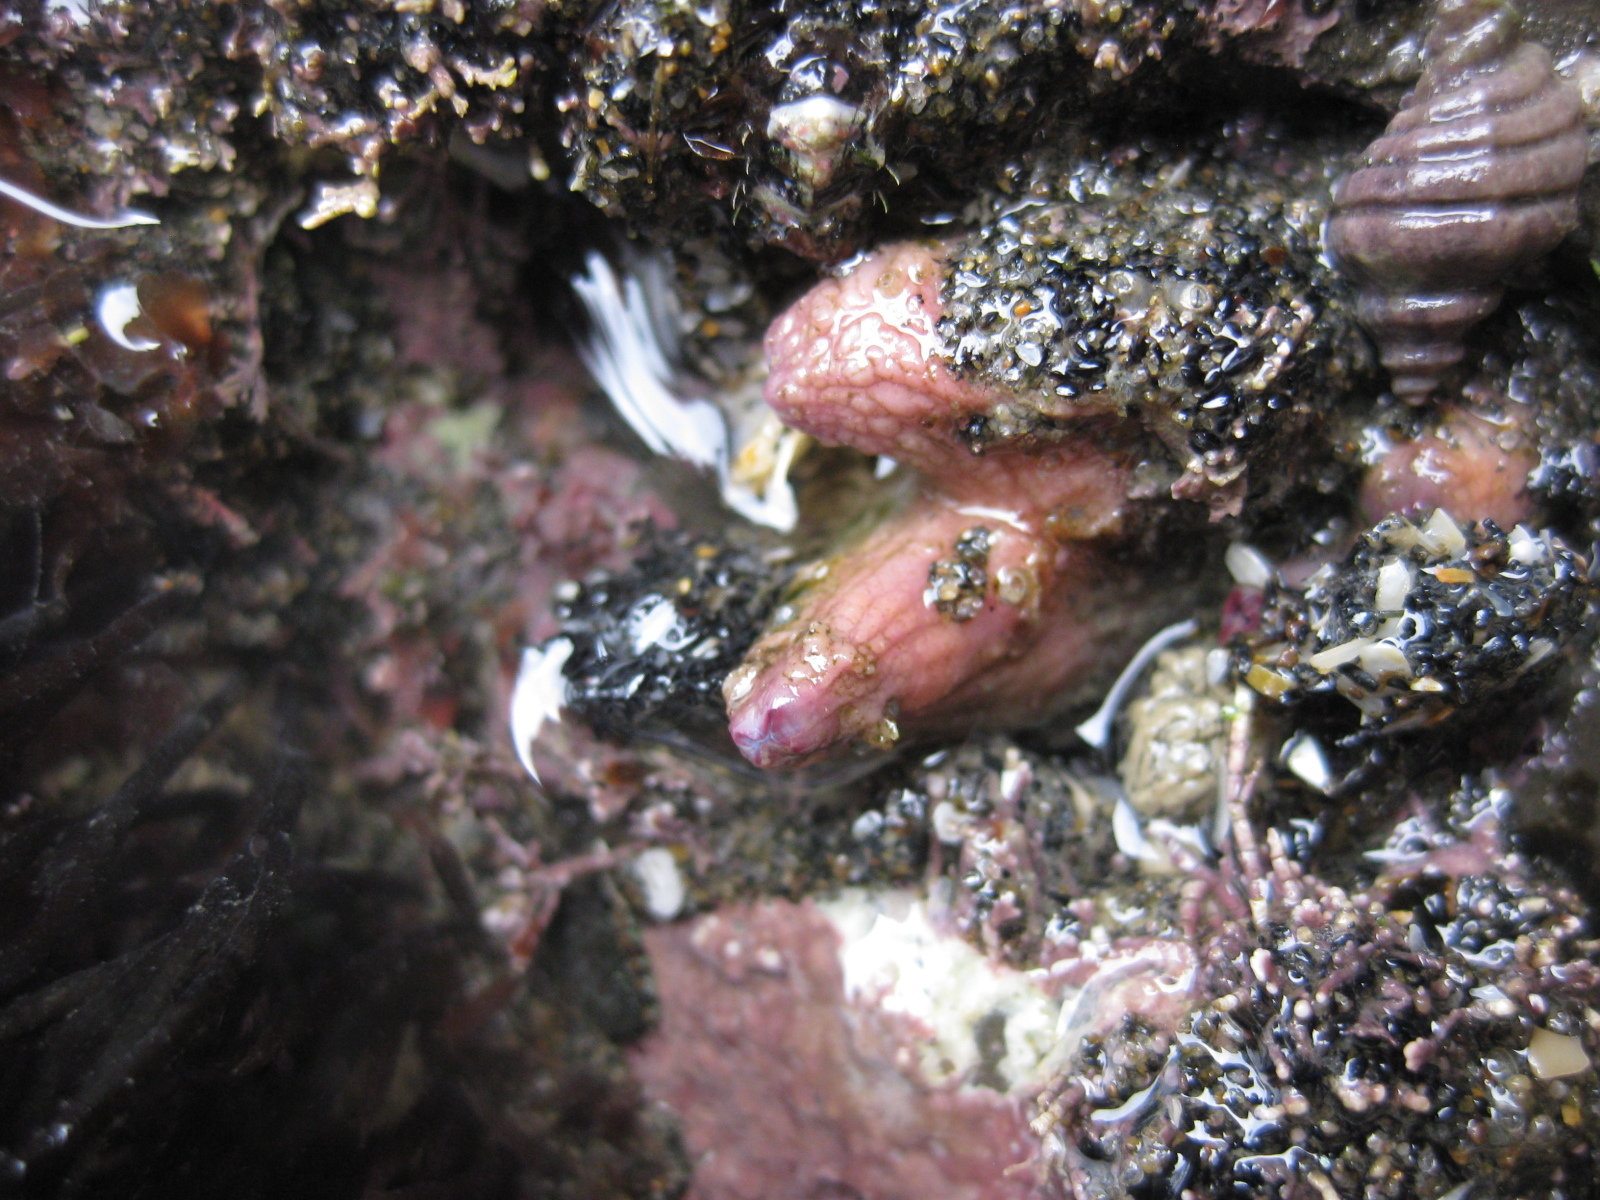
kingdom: Animalia
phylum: Chordata
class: Ascidiacea
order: Stolidobranchia
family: Styelidae
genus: Asterocarpa
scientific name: Asterocarpa humilis
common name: Compass sea squirt
